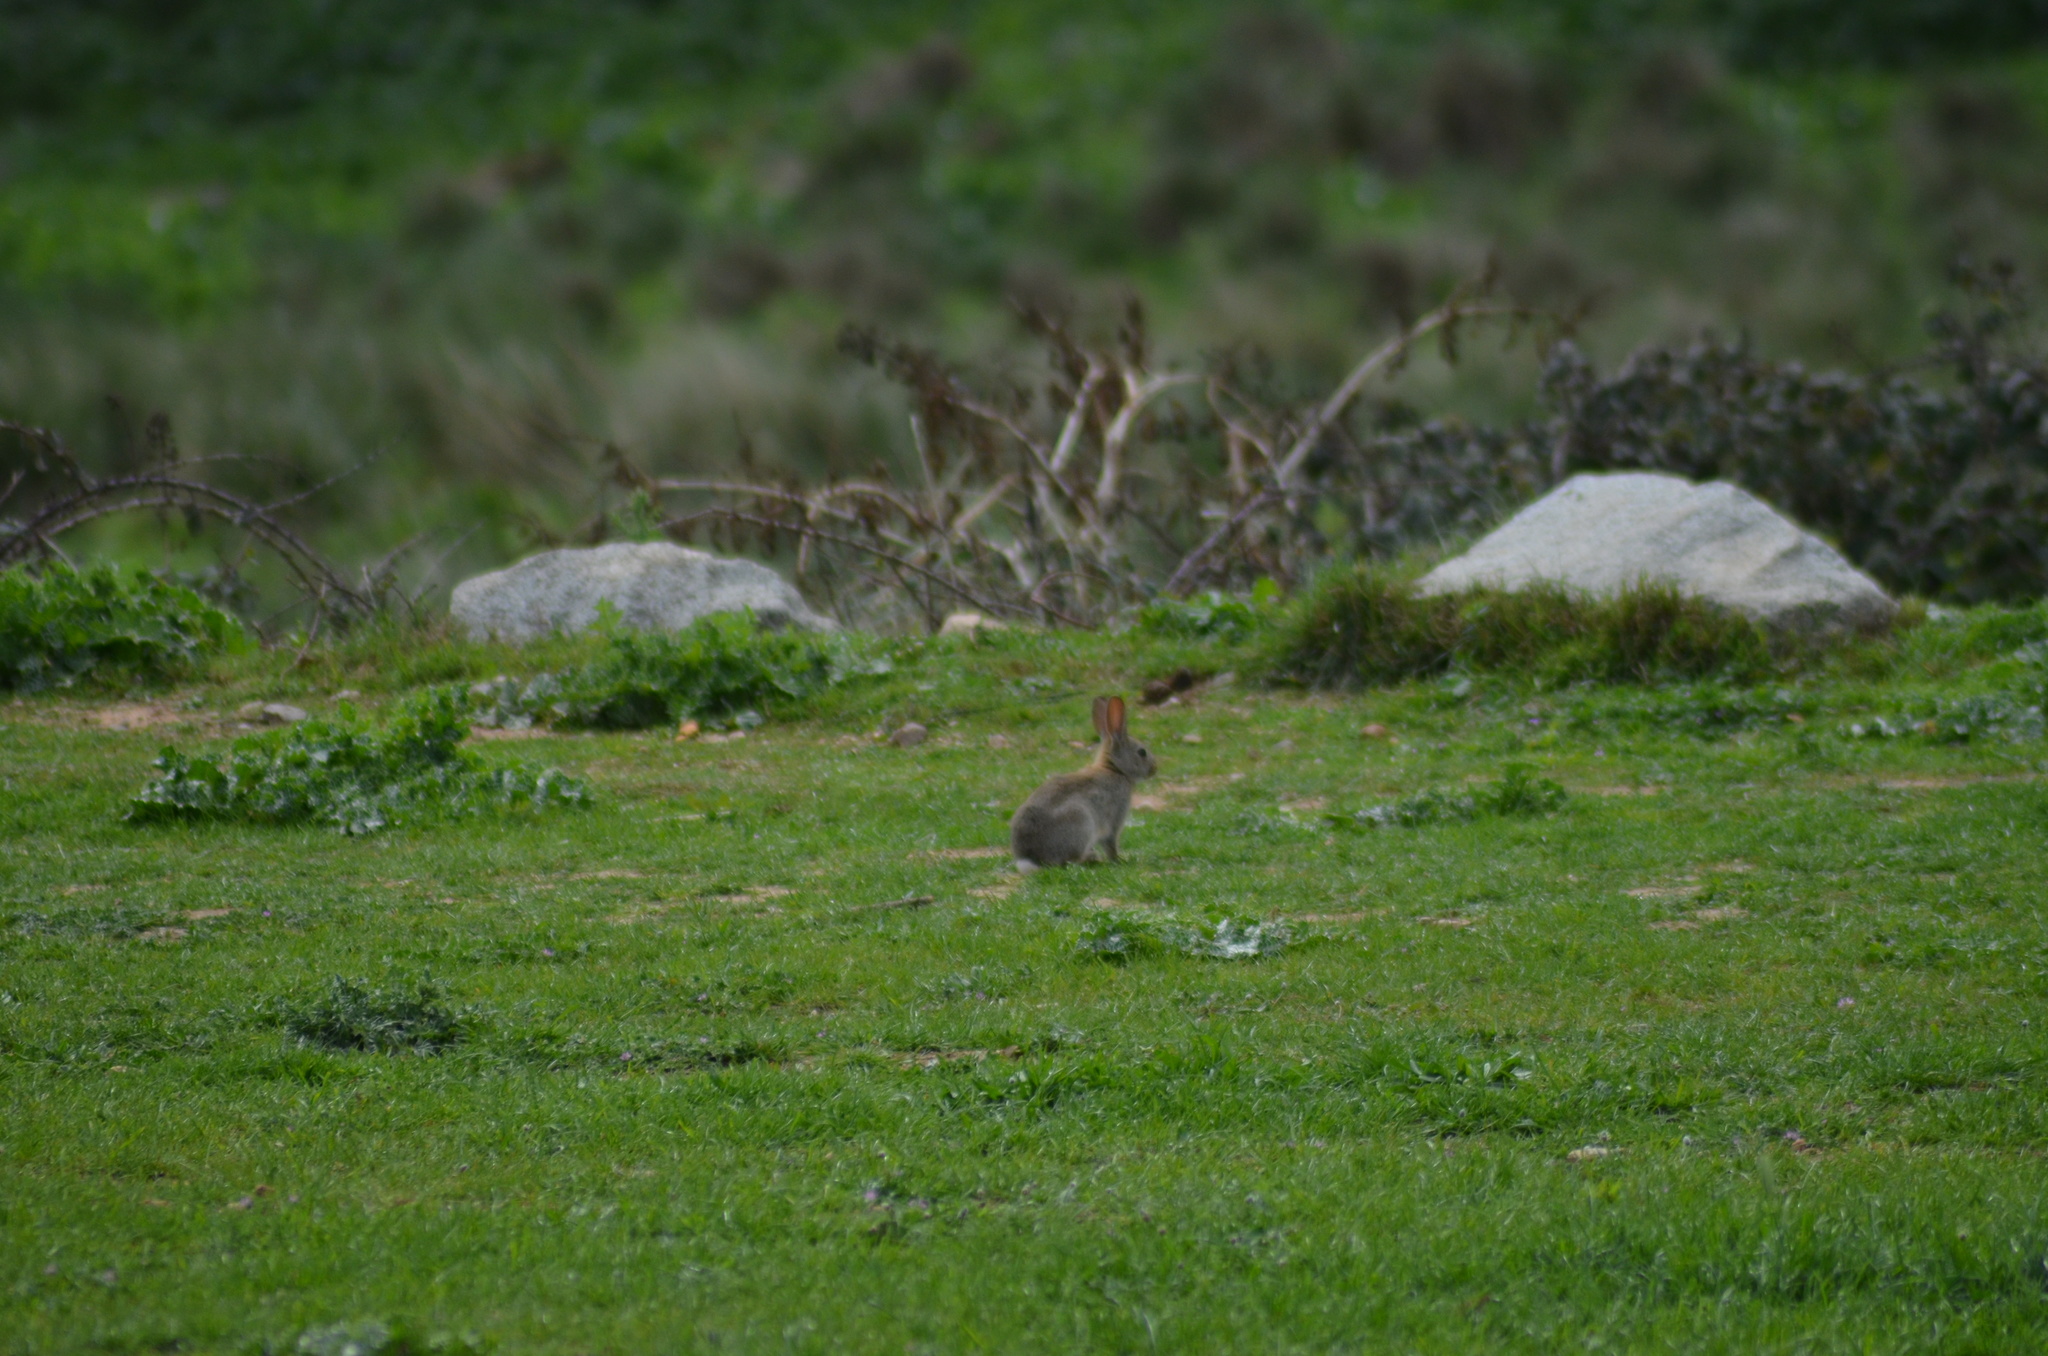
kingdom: Animalia
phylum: Chordata
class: Mammalia
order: Lagomorpha
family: Leporidae
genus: Oryctolagus
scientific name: Oryctolagus cuniculus
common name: European rabbit
